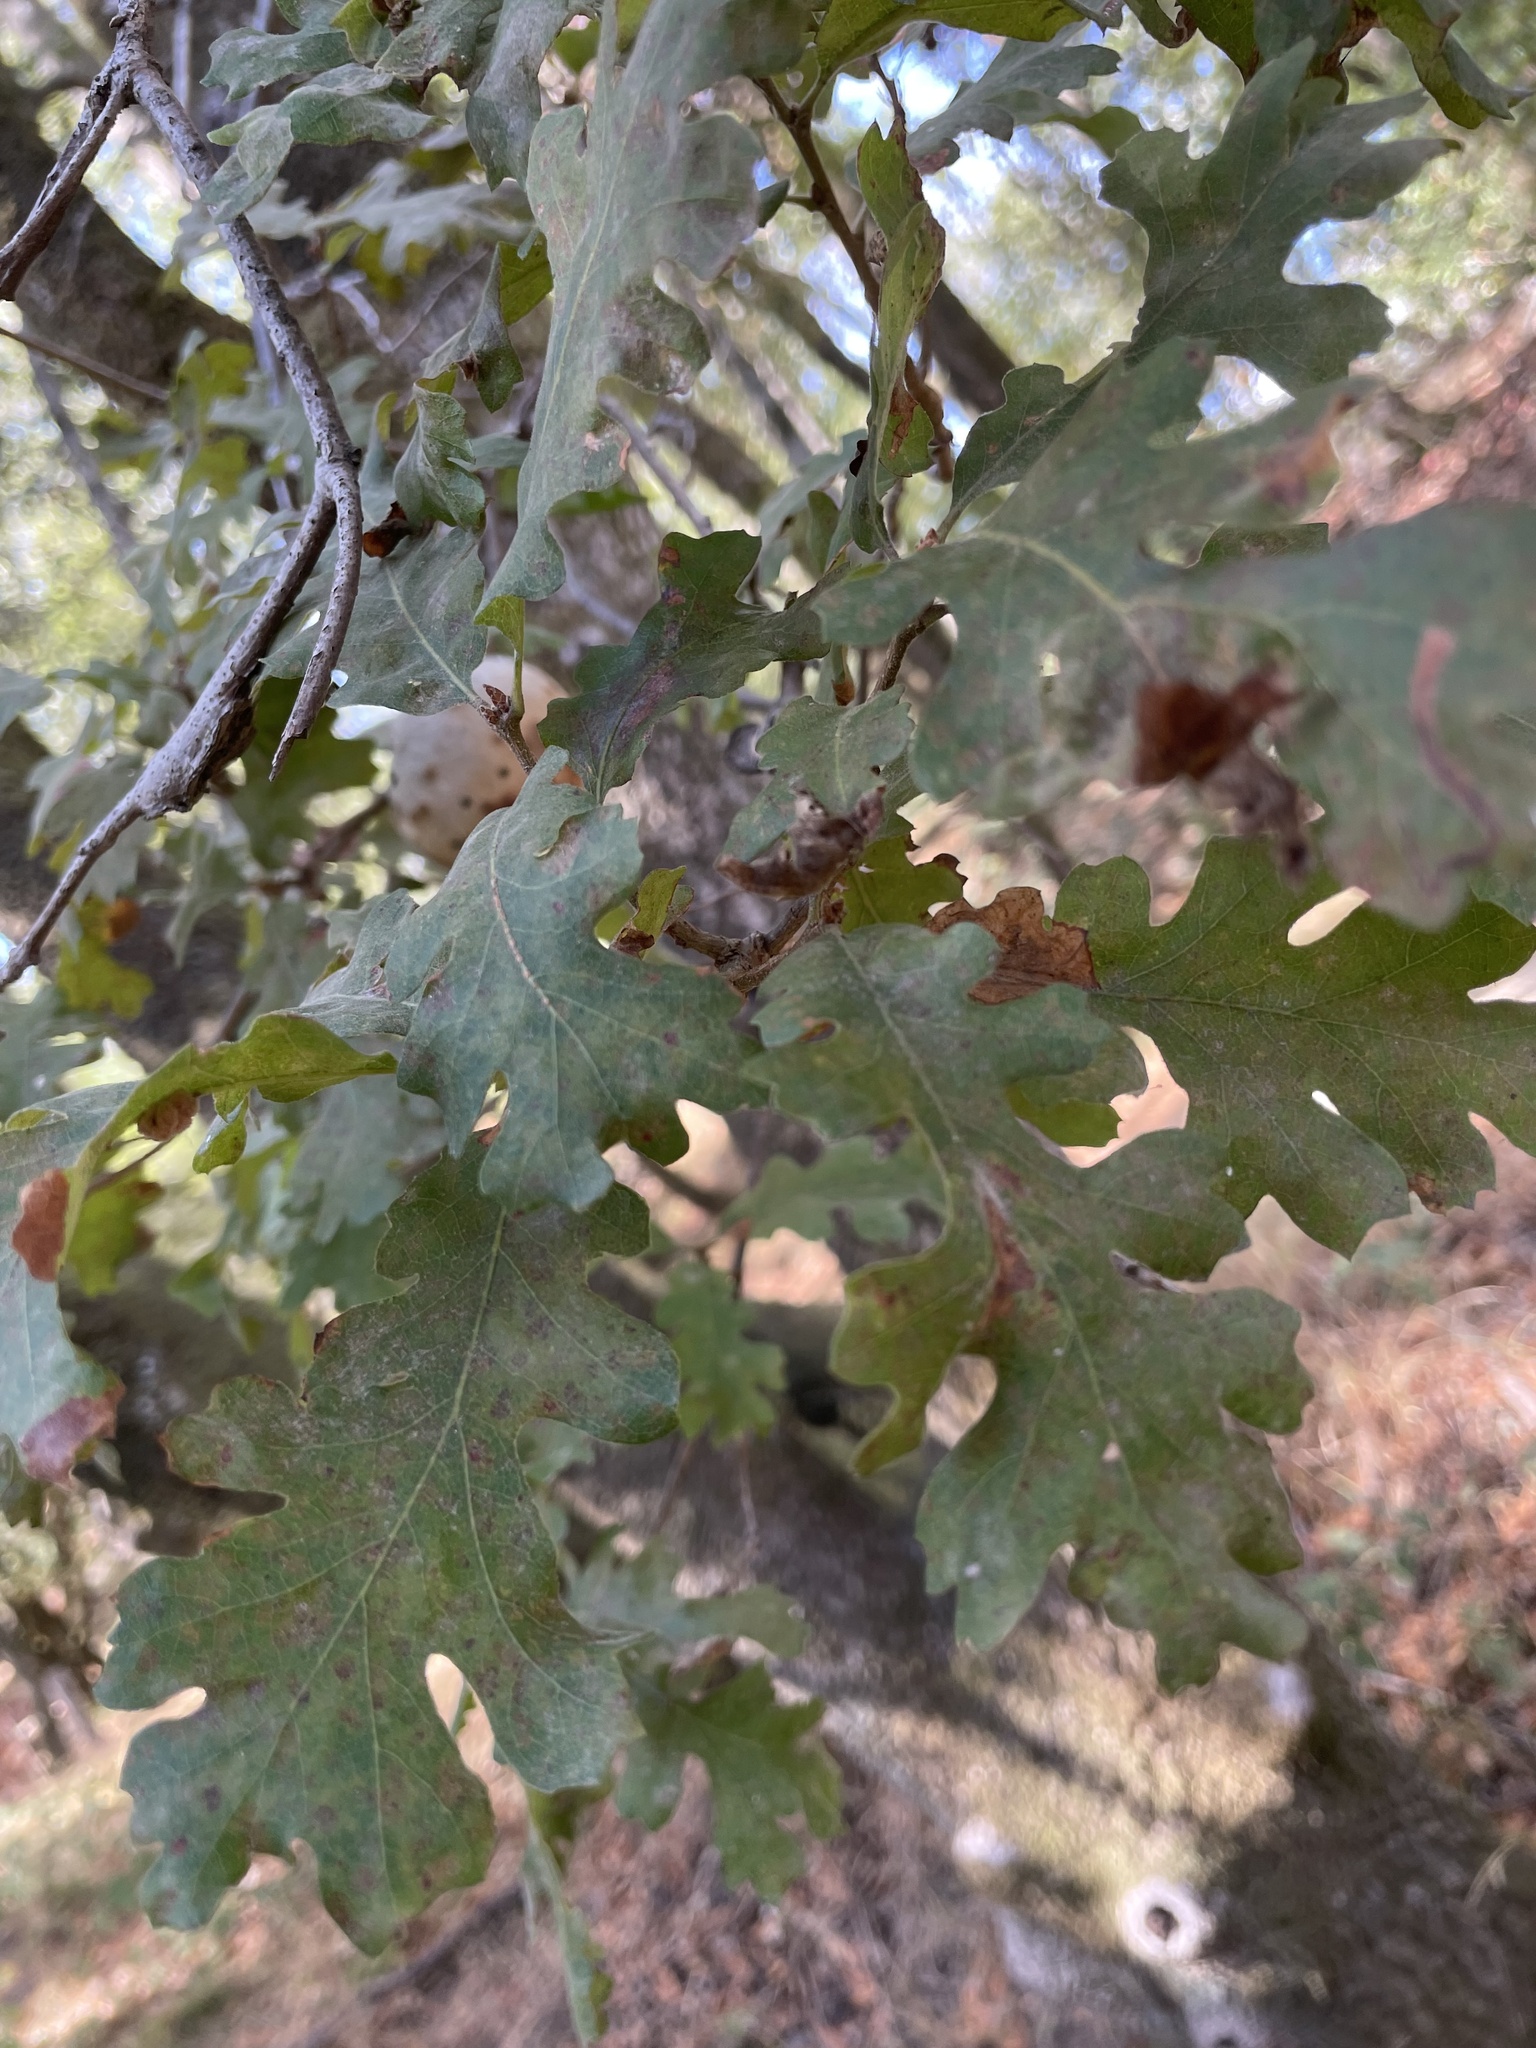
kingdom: Plantae
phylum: Tracheophyta
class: Magnoliopsida
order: Fagales
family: Fagaceae
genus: Quercus
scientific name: Quercus lobata
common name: Valley oak
